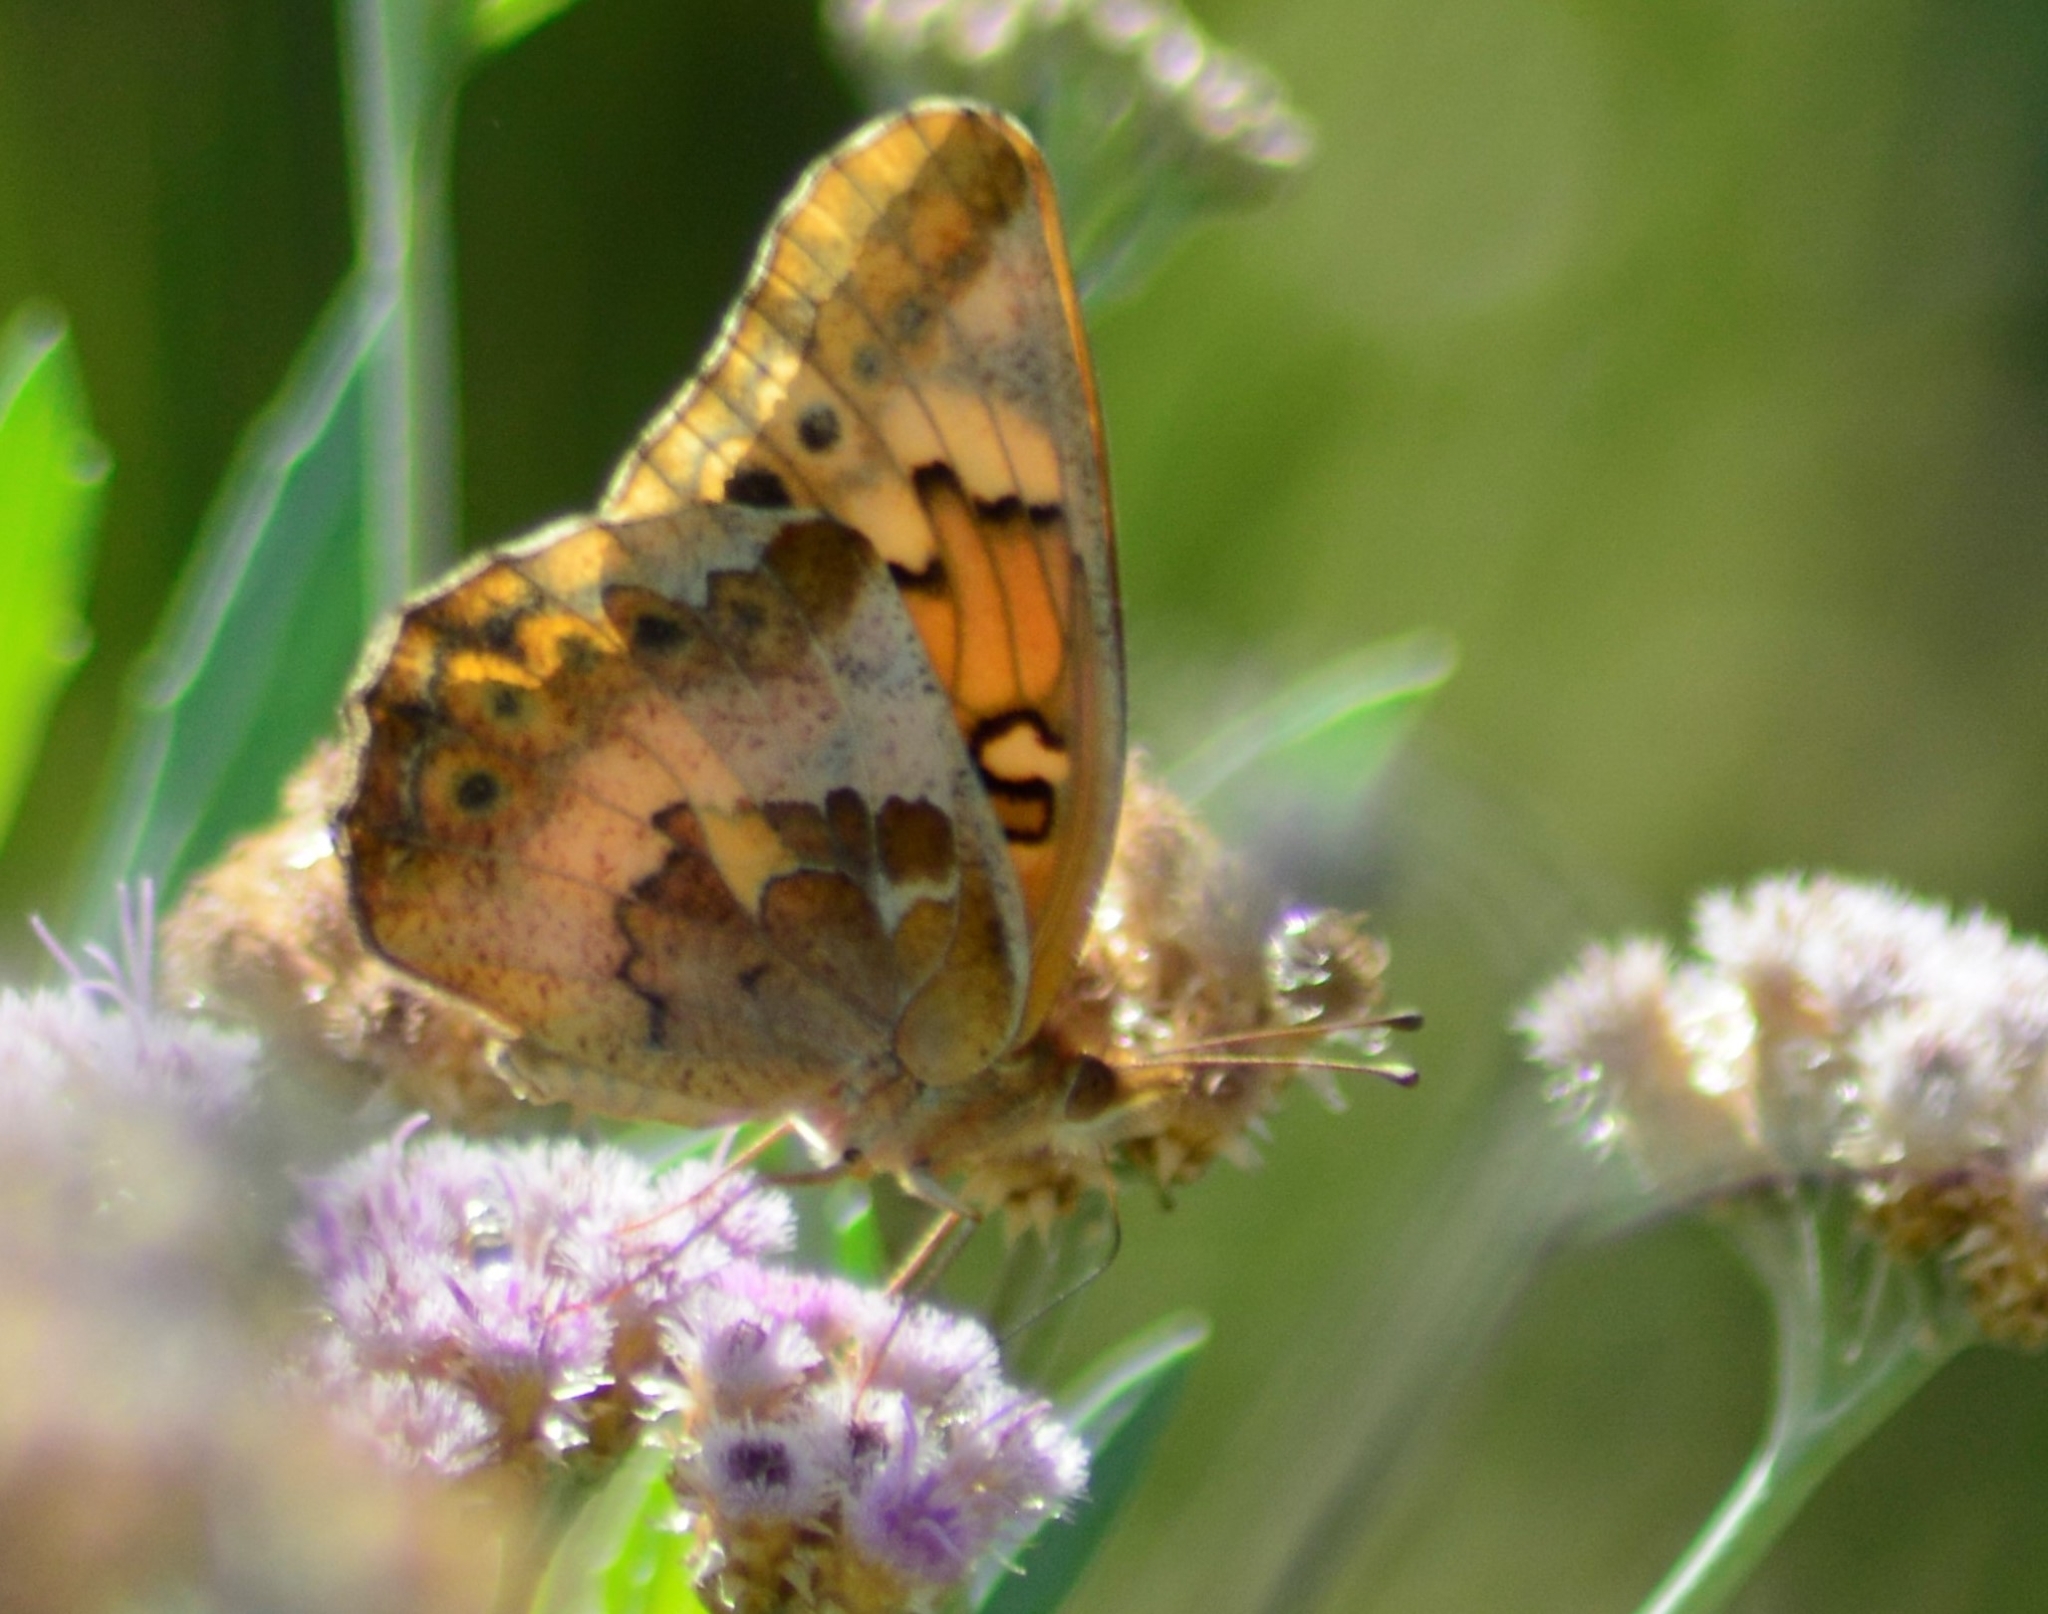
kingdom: Animalia
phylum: Arthropoda
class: Insecta
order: Lepidoptera
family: Nymphalidae
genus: Euptoieta
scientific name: Euptoieta hortensia
